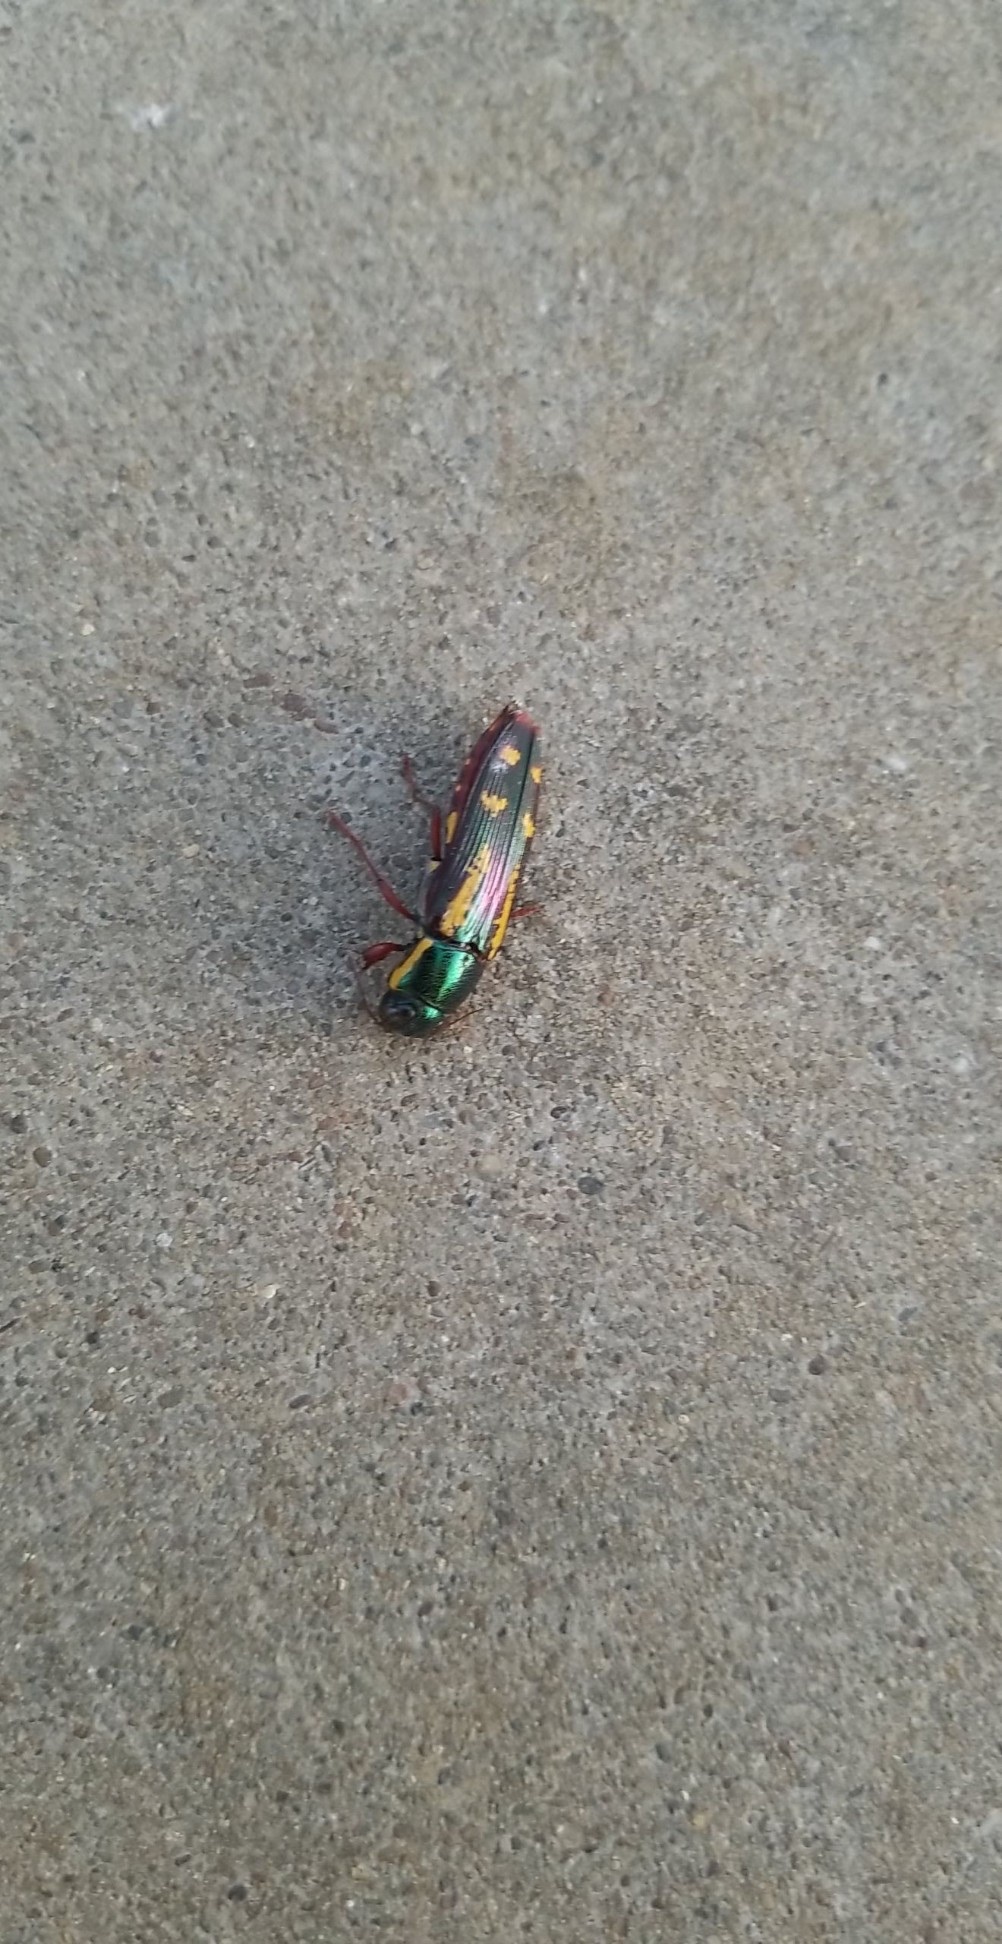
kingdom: Animalia
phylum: Arthropoda
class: Insecta
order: Coleoptera
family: Buprestidae
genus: Buprestis
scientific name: Buprestis rufipes
